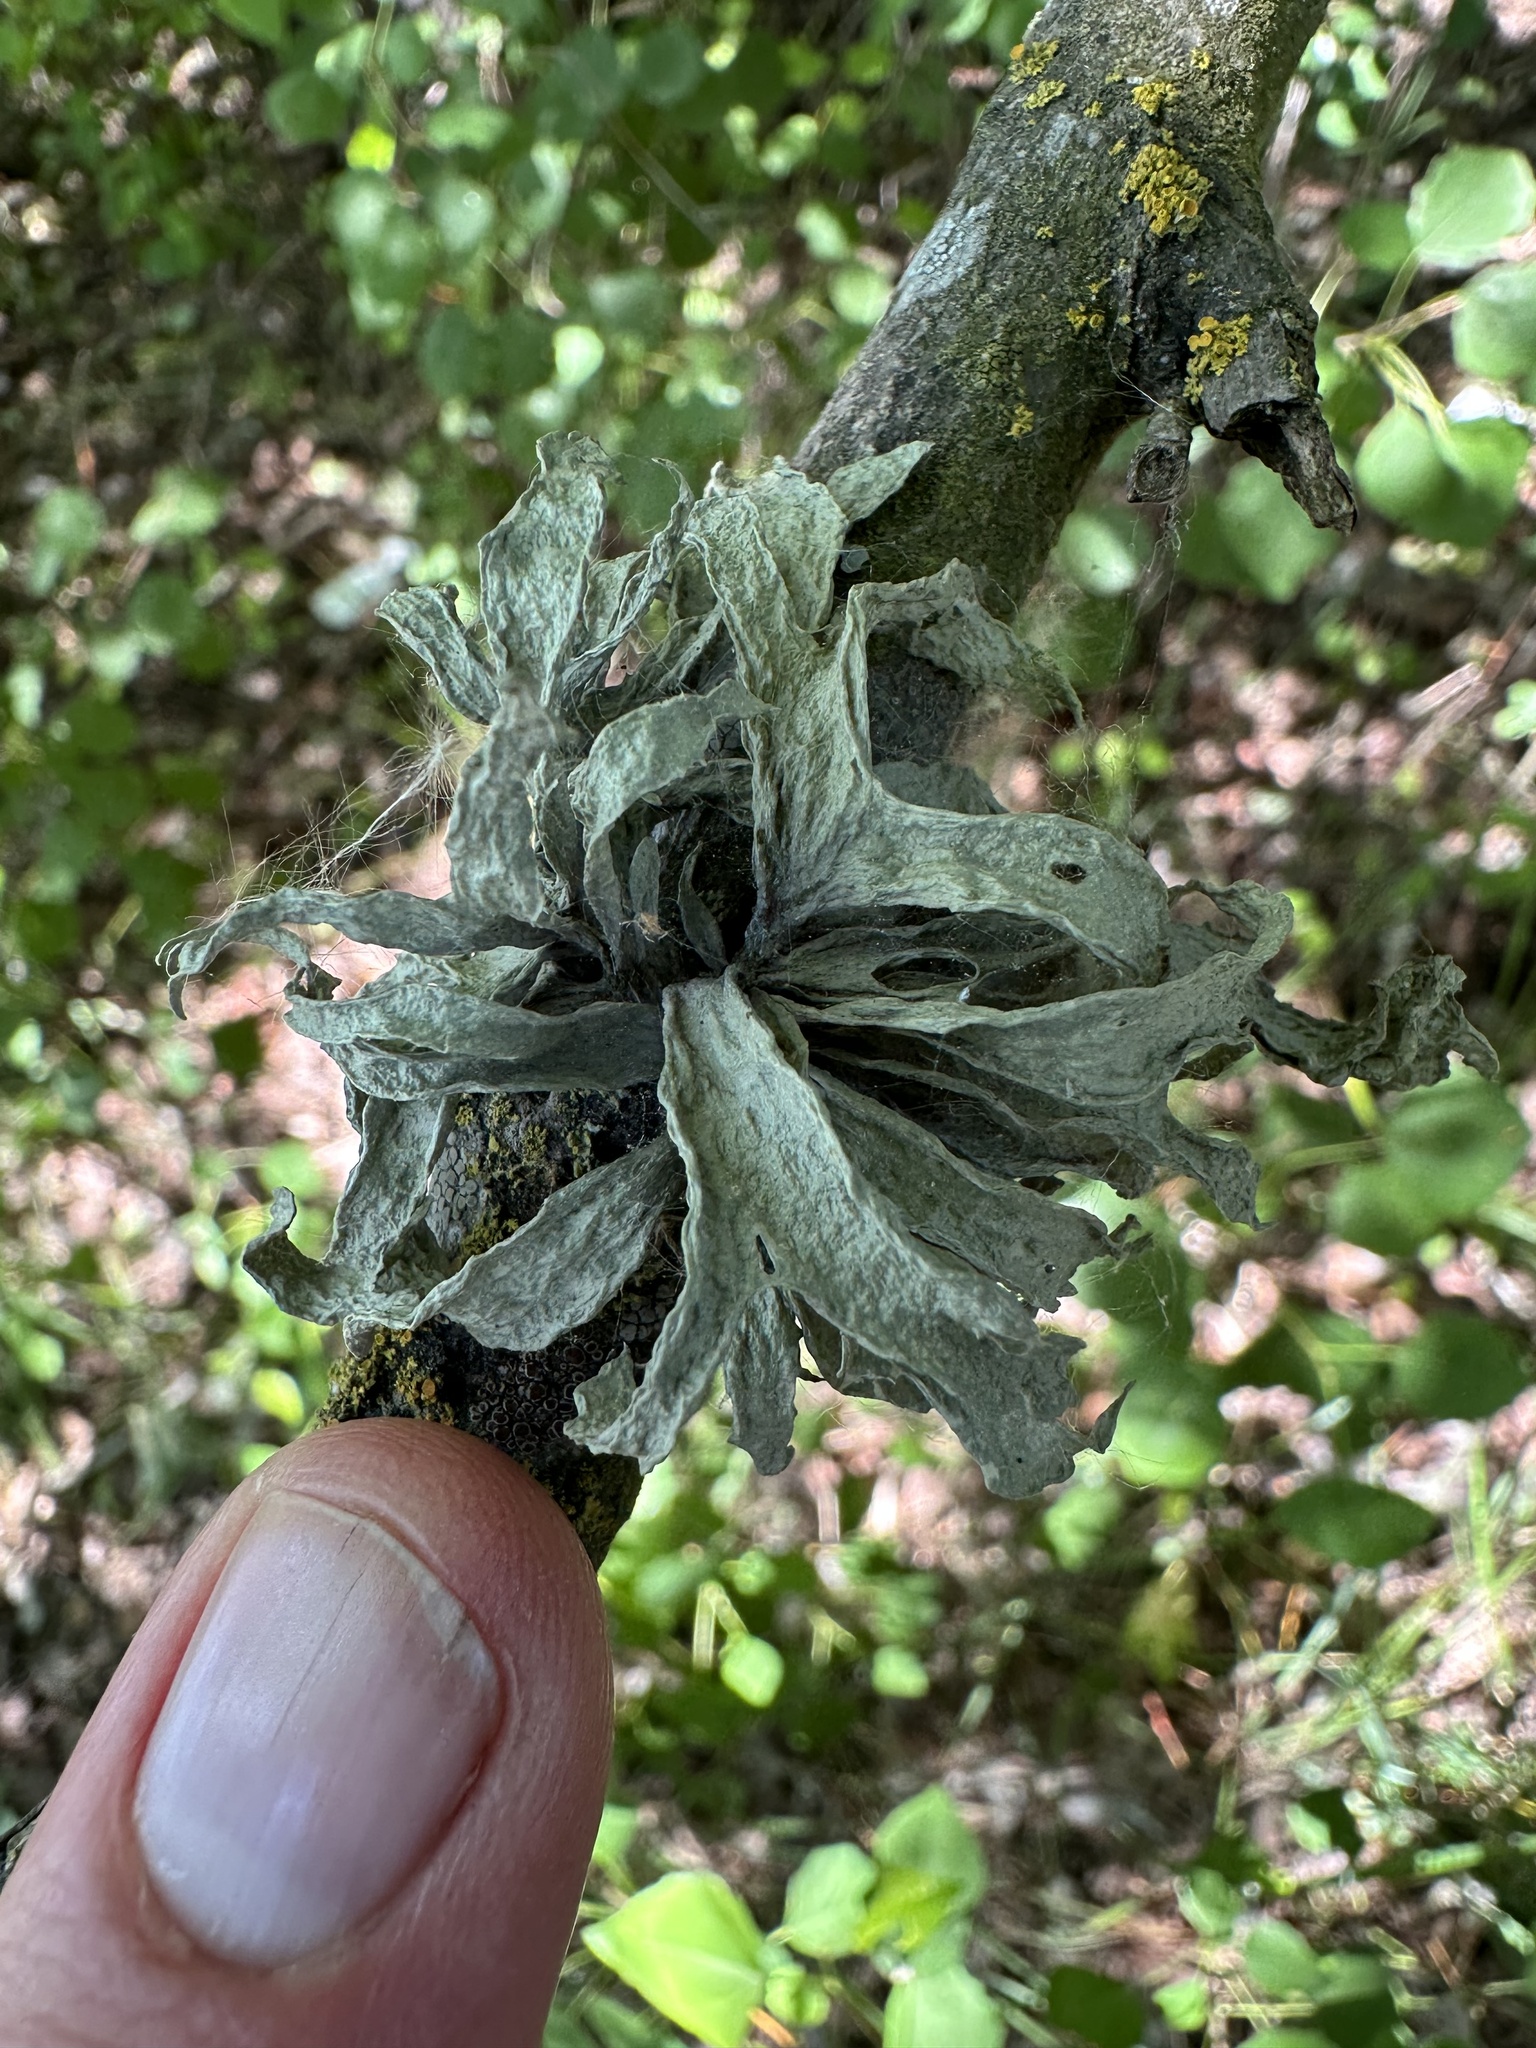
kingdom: Fungi
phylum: Ascomycota
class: Lecanoromycetes
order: Lecanorales
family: Ramalinaceae
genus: Ramalina
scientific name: Ramalina fraxinea
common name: Cartilage lichen
